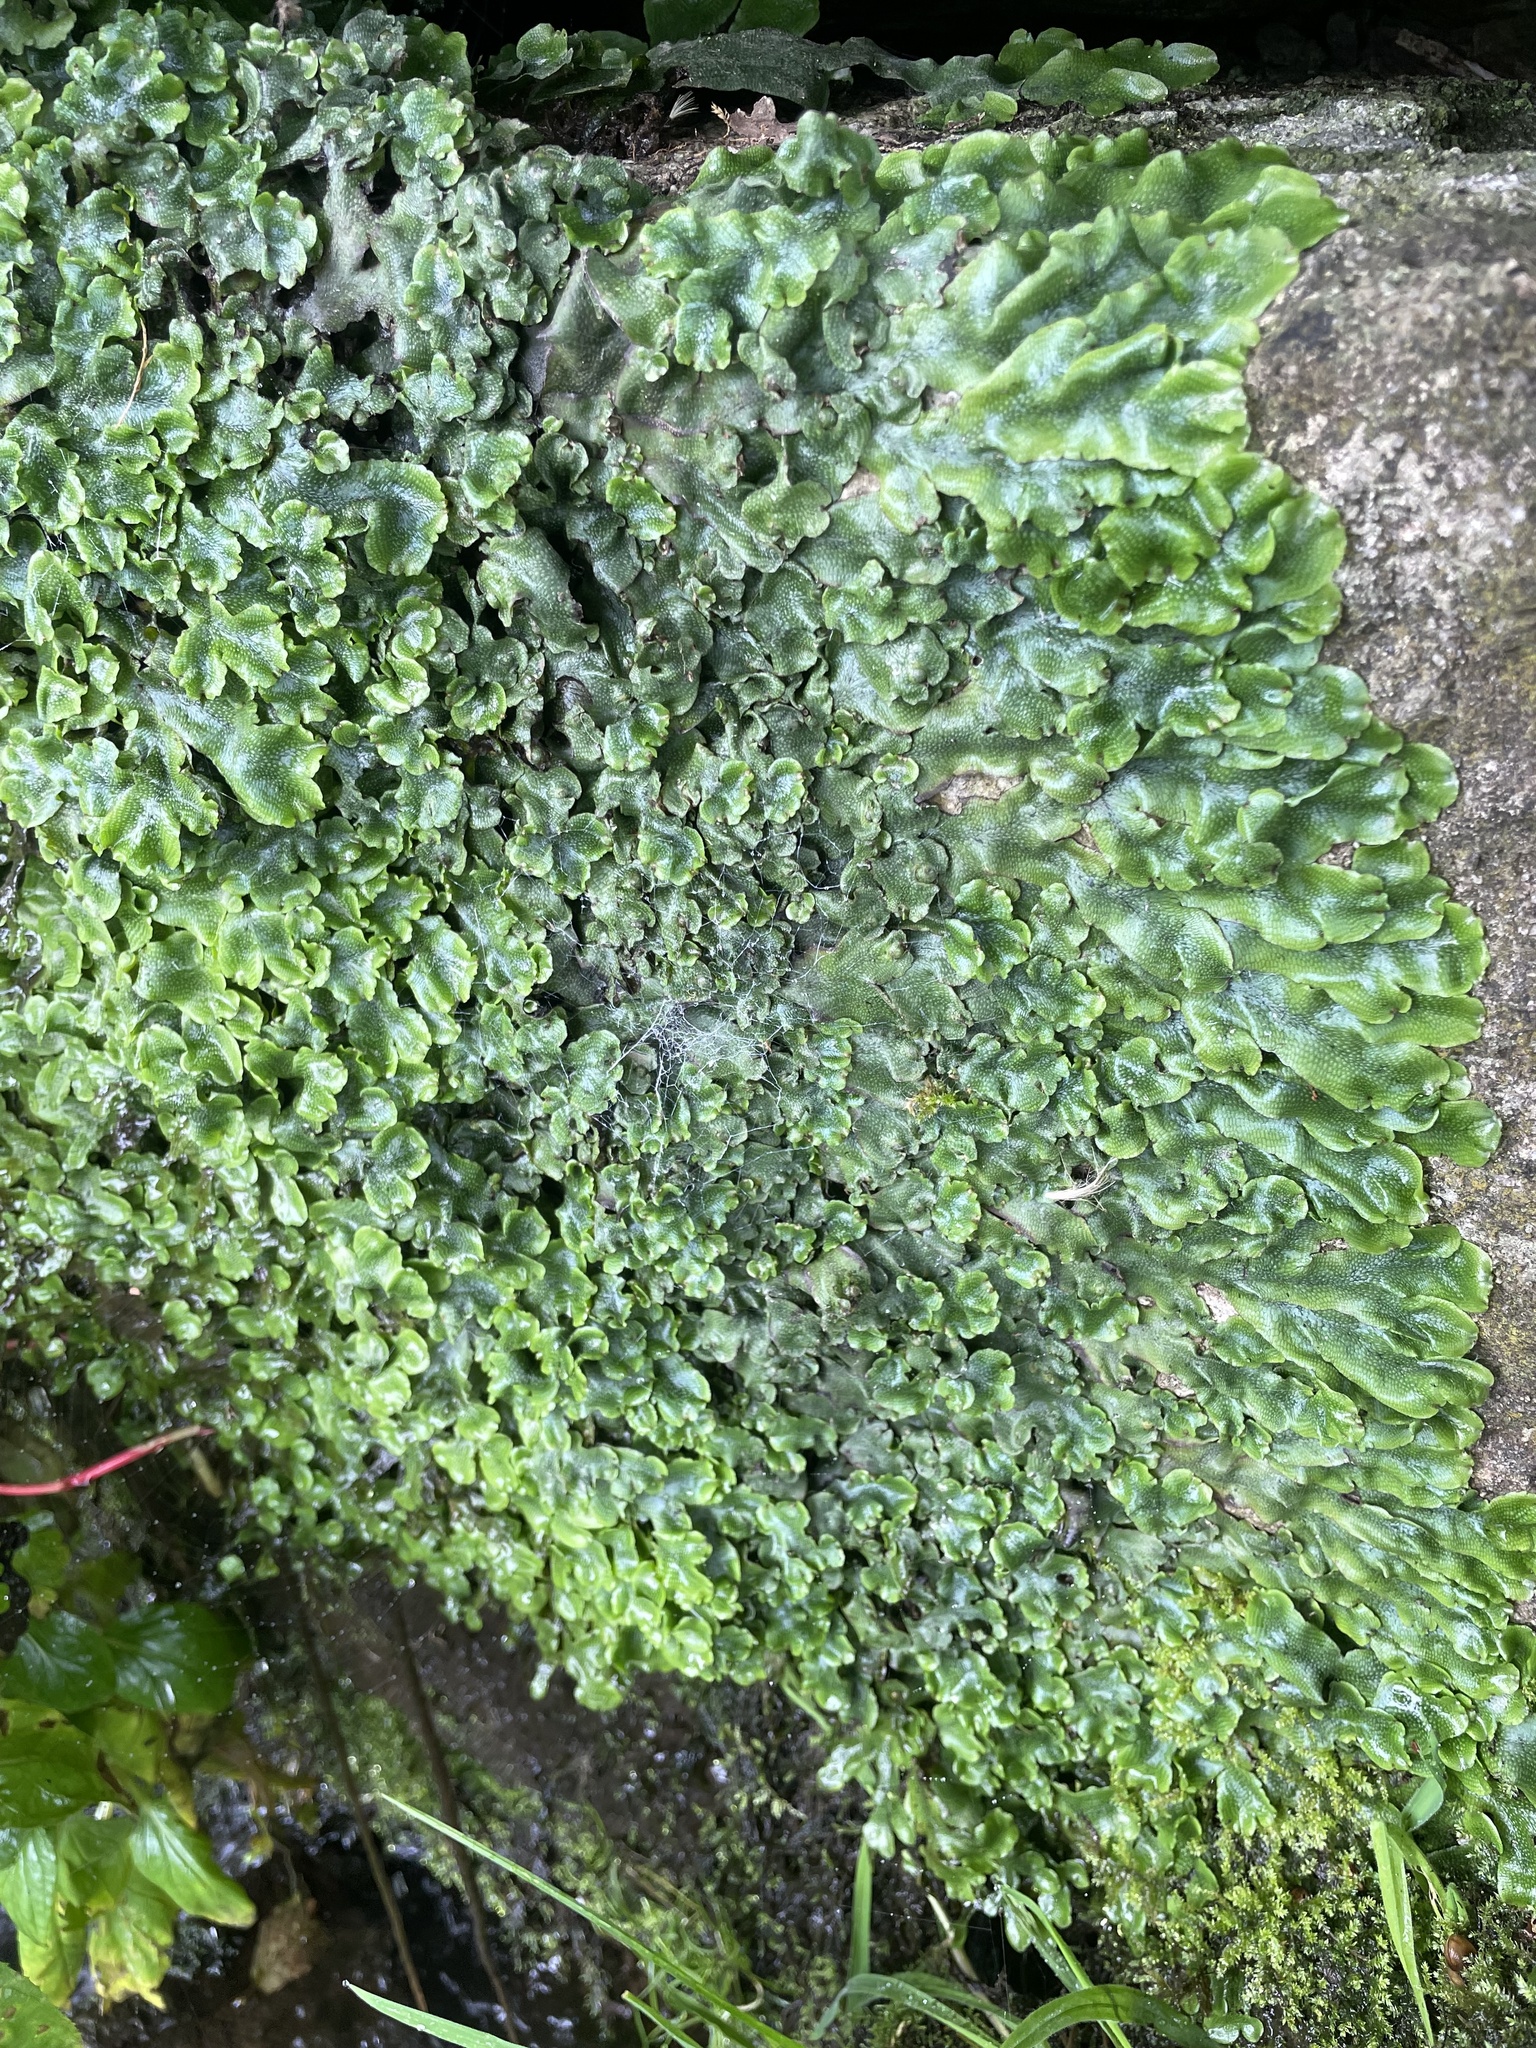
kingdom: Plantae
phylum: Marchantiophyta
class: Marchantiopsida
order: Marchantiales
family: Conocephalaceae
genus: Conocephalum
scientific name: Conocephalum conicum
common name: Great scented liverwort
